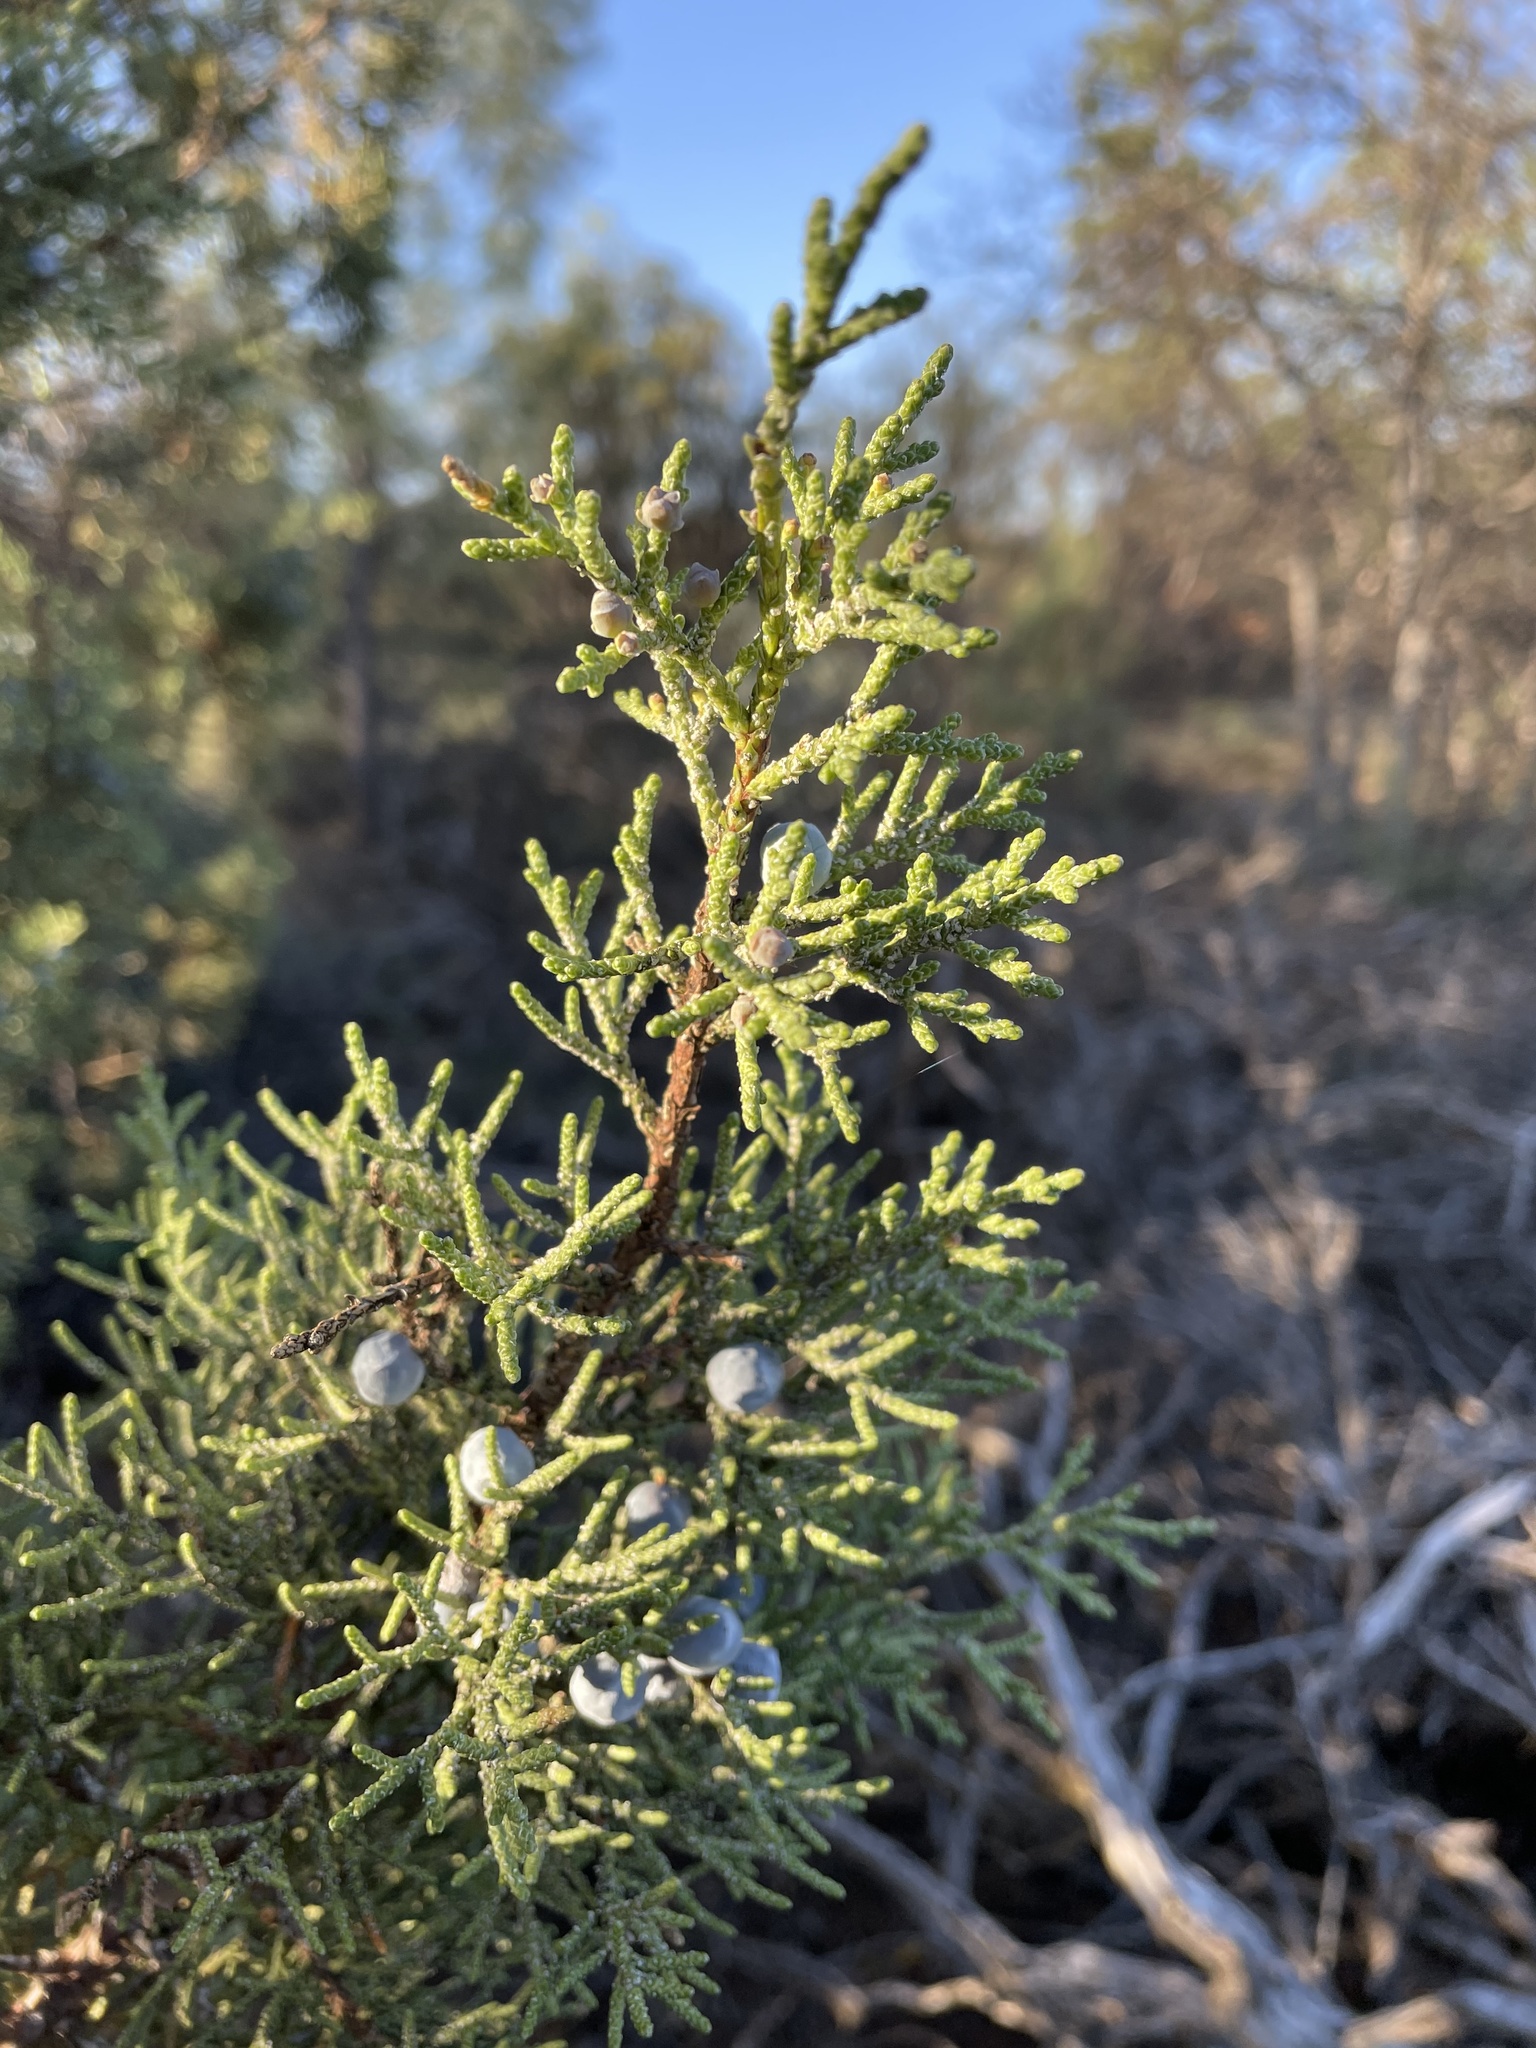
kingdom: Plantae
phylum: Tracheophyta
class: Pinopsida
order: Pinales
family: Cupressaceae
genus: Juniperus
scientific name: Juniperus occidentalis
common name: Western juniper
